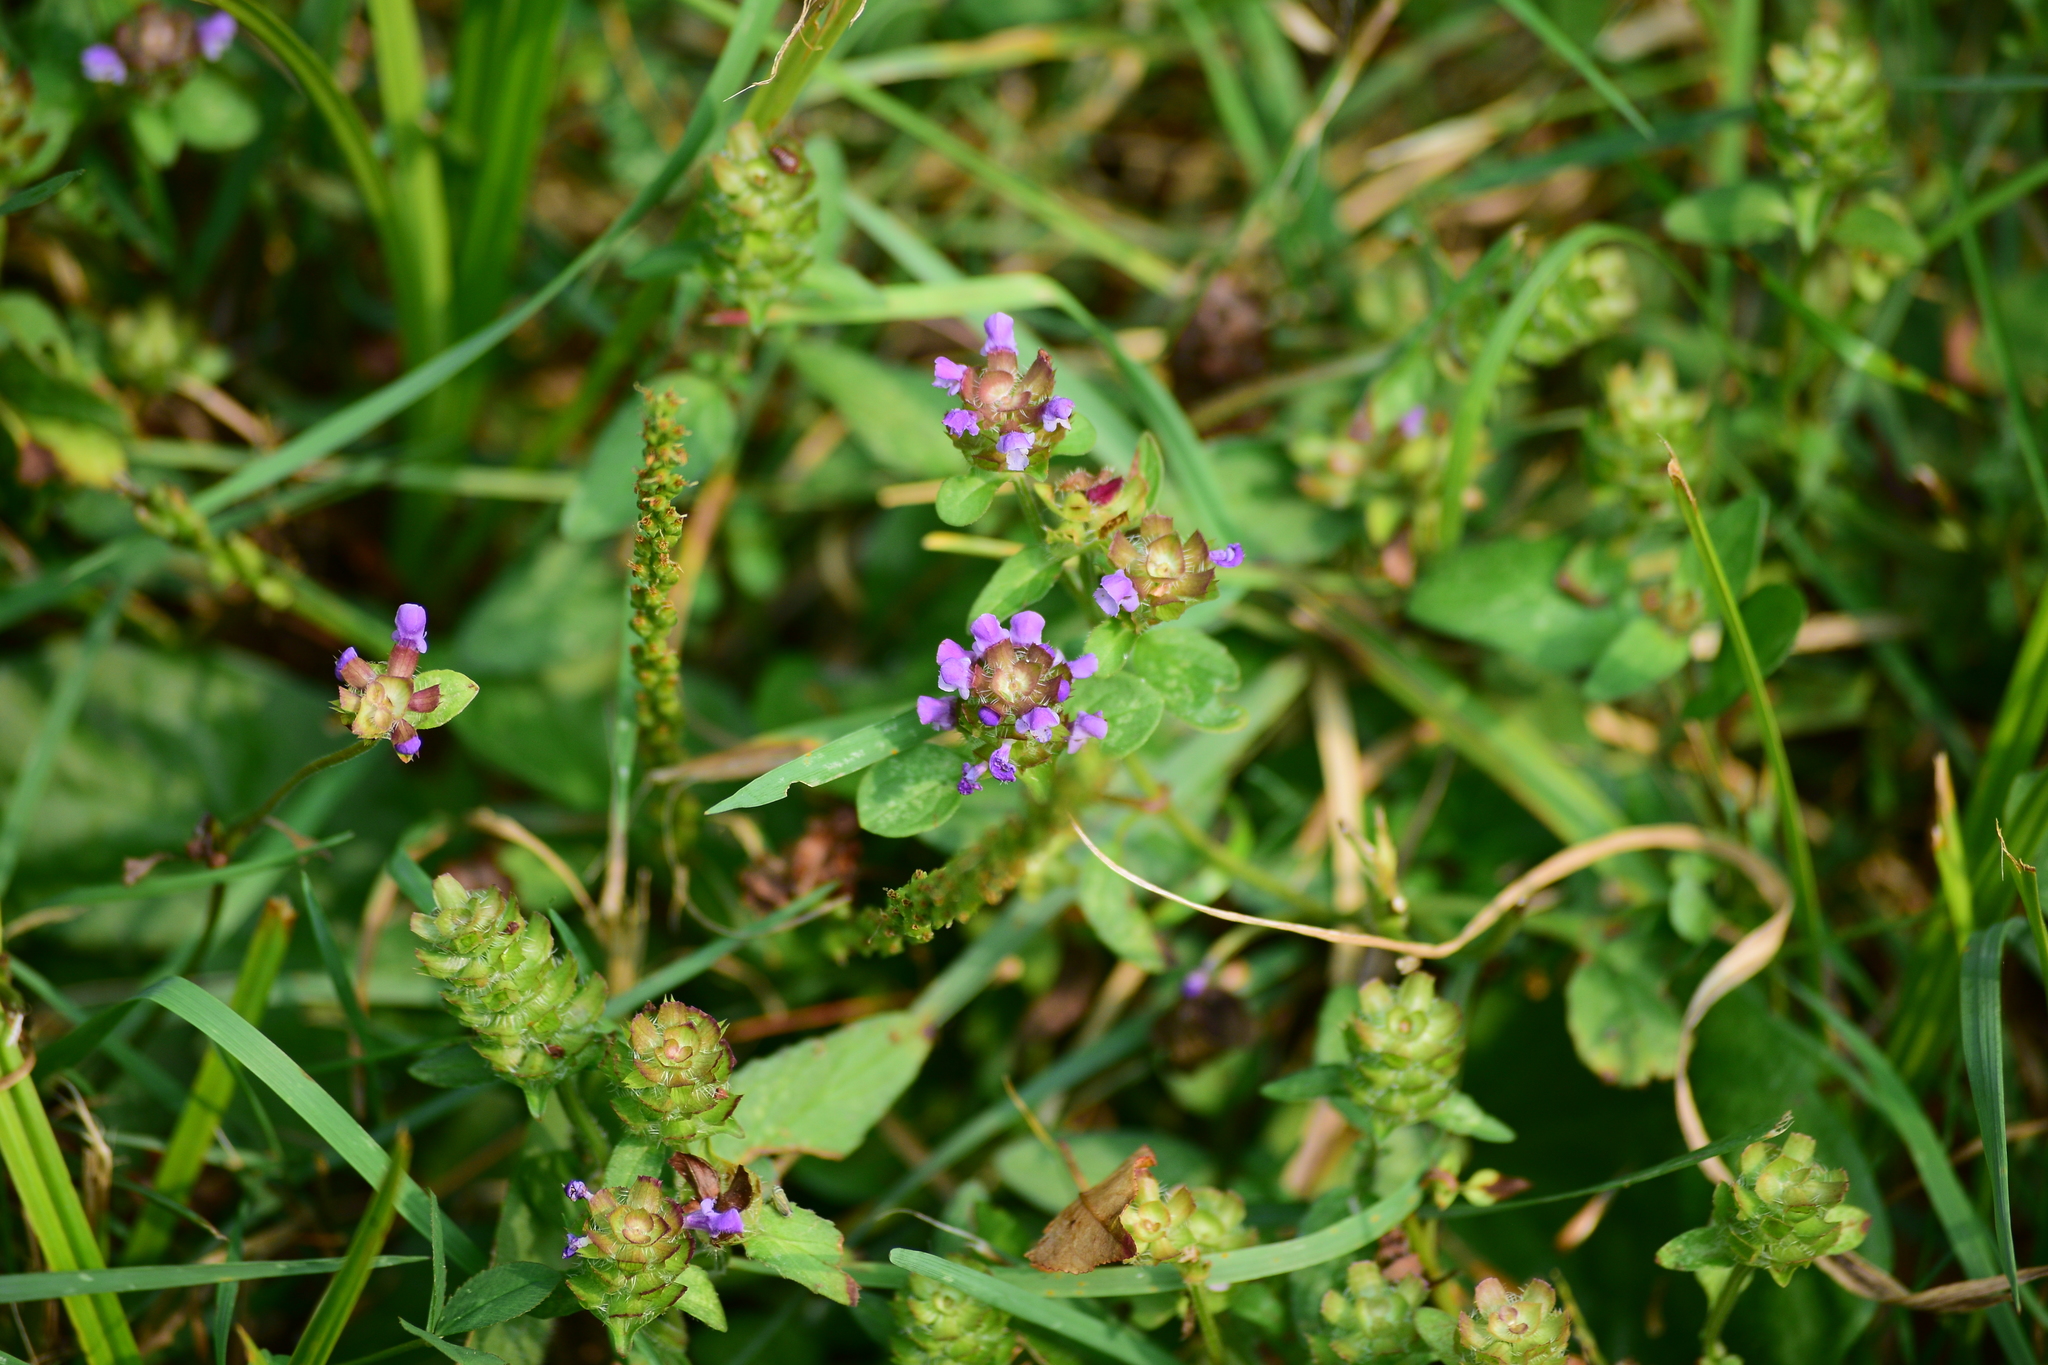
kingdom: Plantae
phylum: Tracheophyta
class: Magnoliopsida
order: Lamiales
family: Lamiaceae
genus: Prunella
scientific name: Prunella vulgaris
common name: Heal-all
